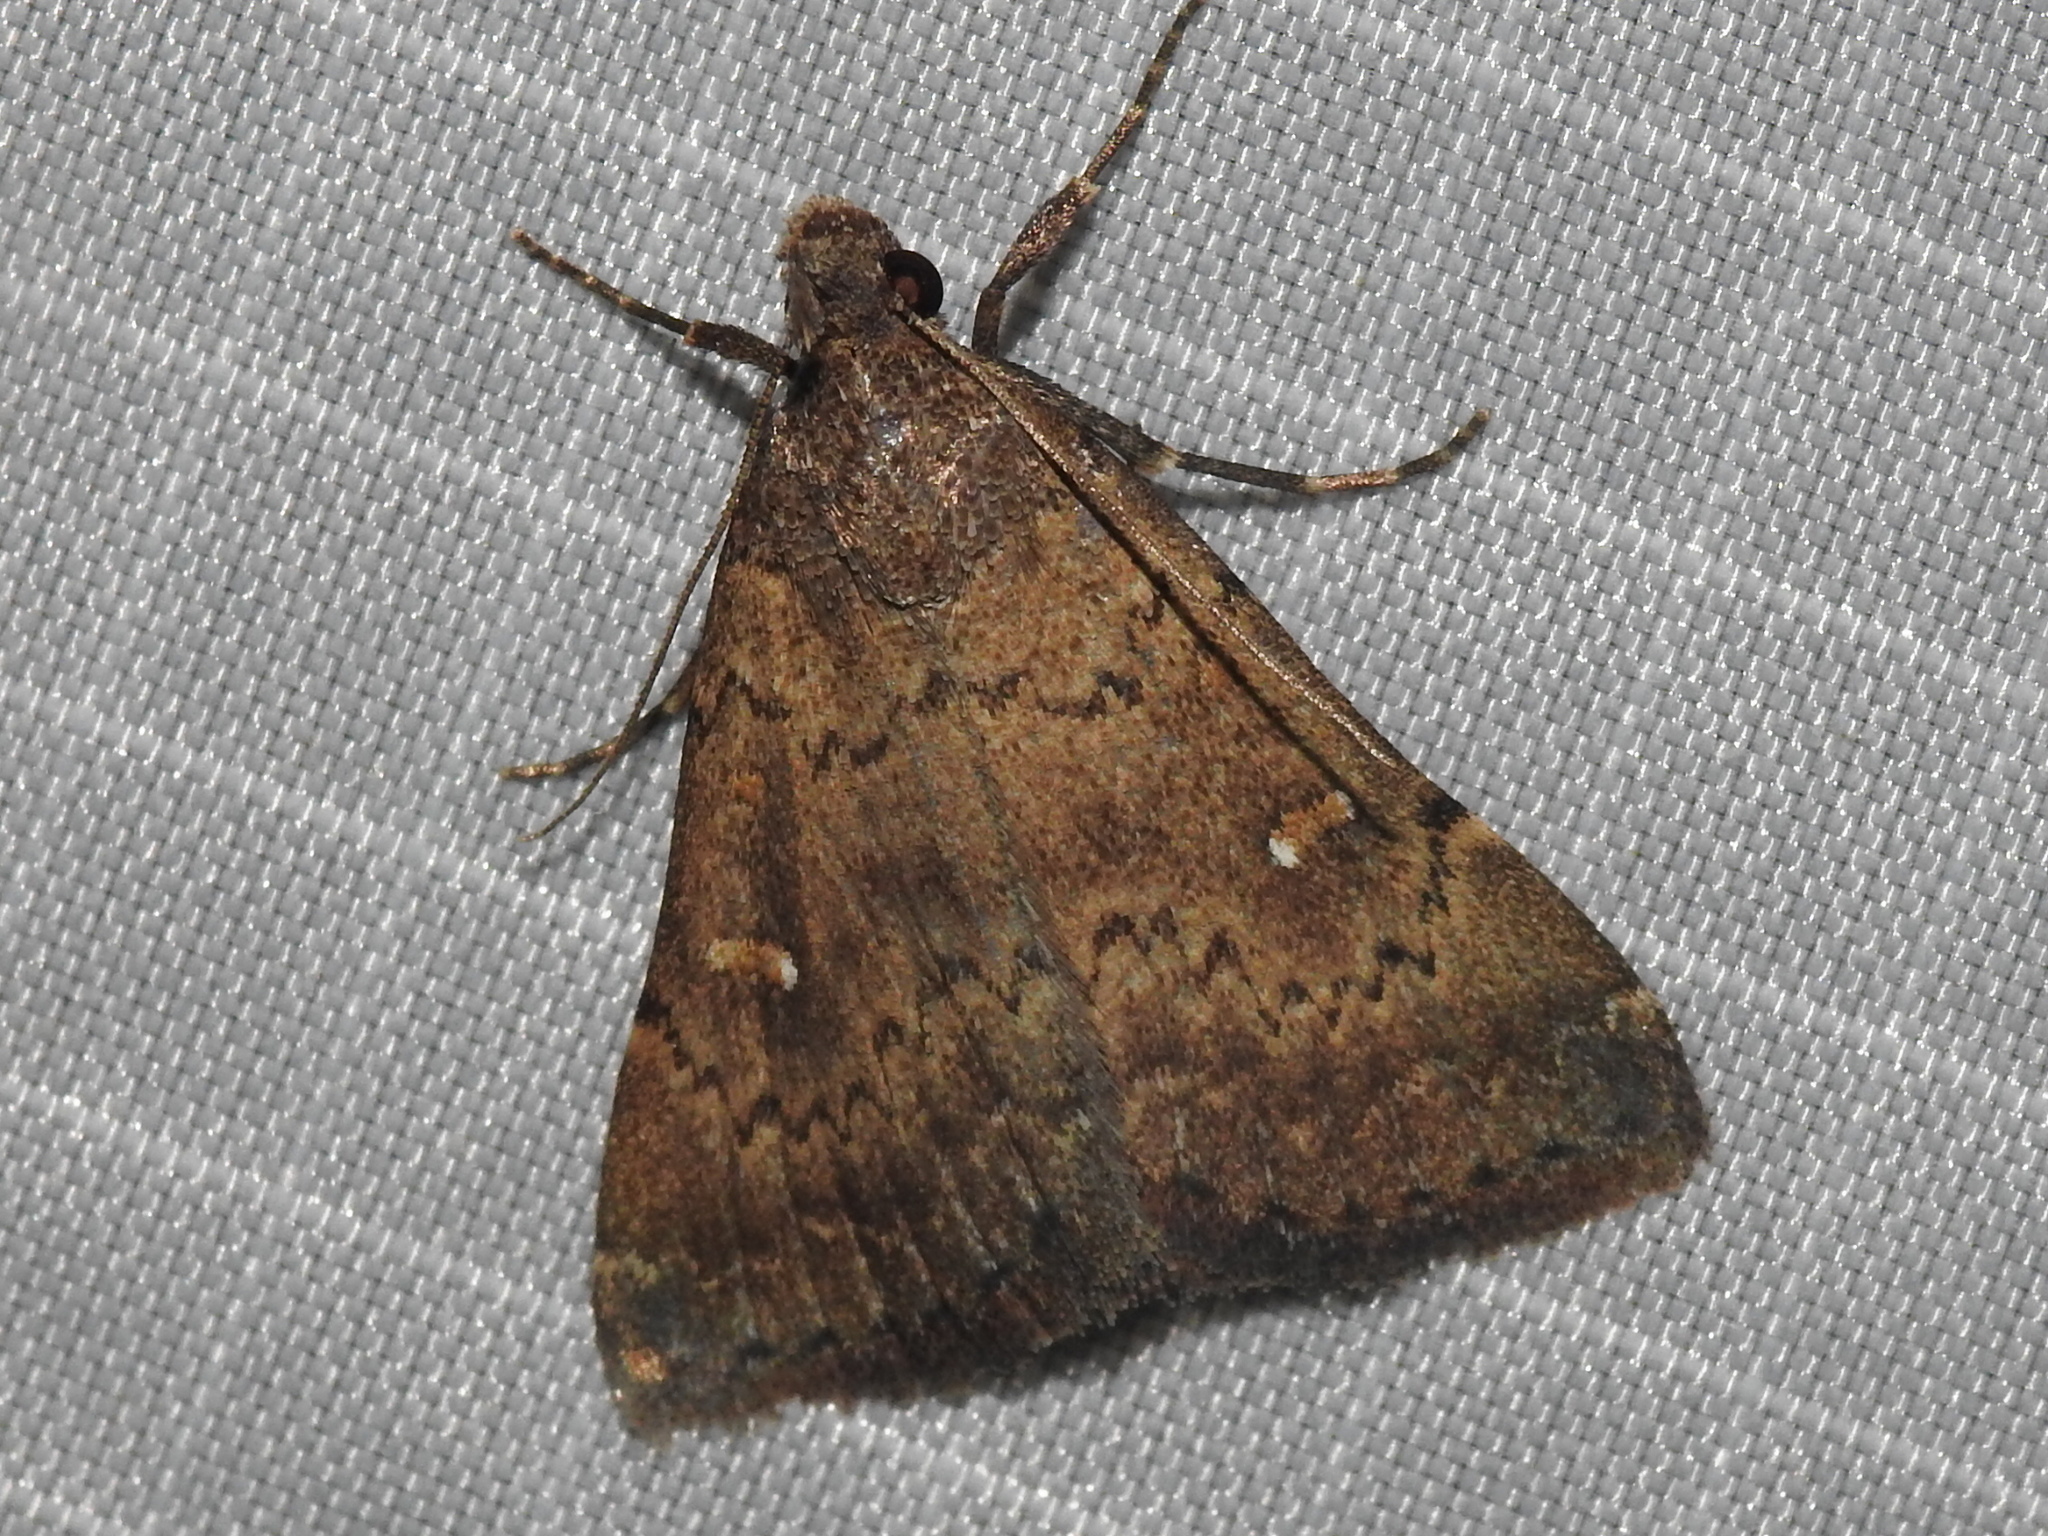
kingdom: Animalia
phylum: Arthropoda
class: Insecta
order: Lepidoptera
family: Erebidae
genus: Hypenula
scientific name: Hypenula cacuminalis
